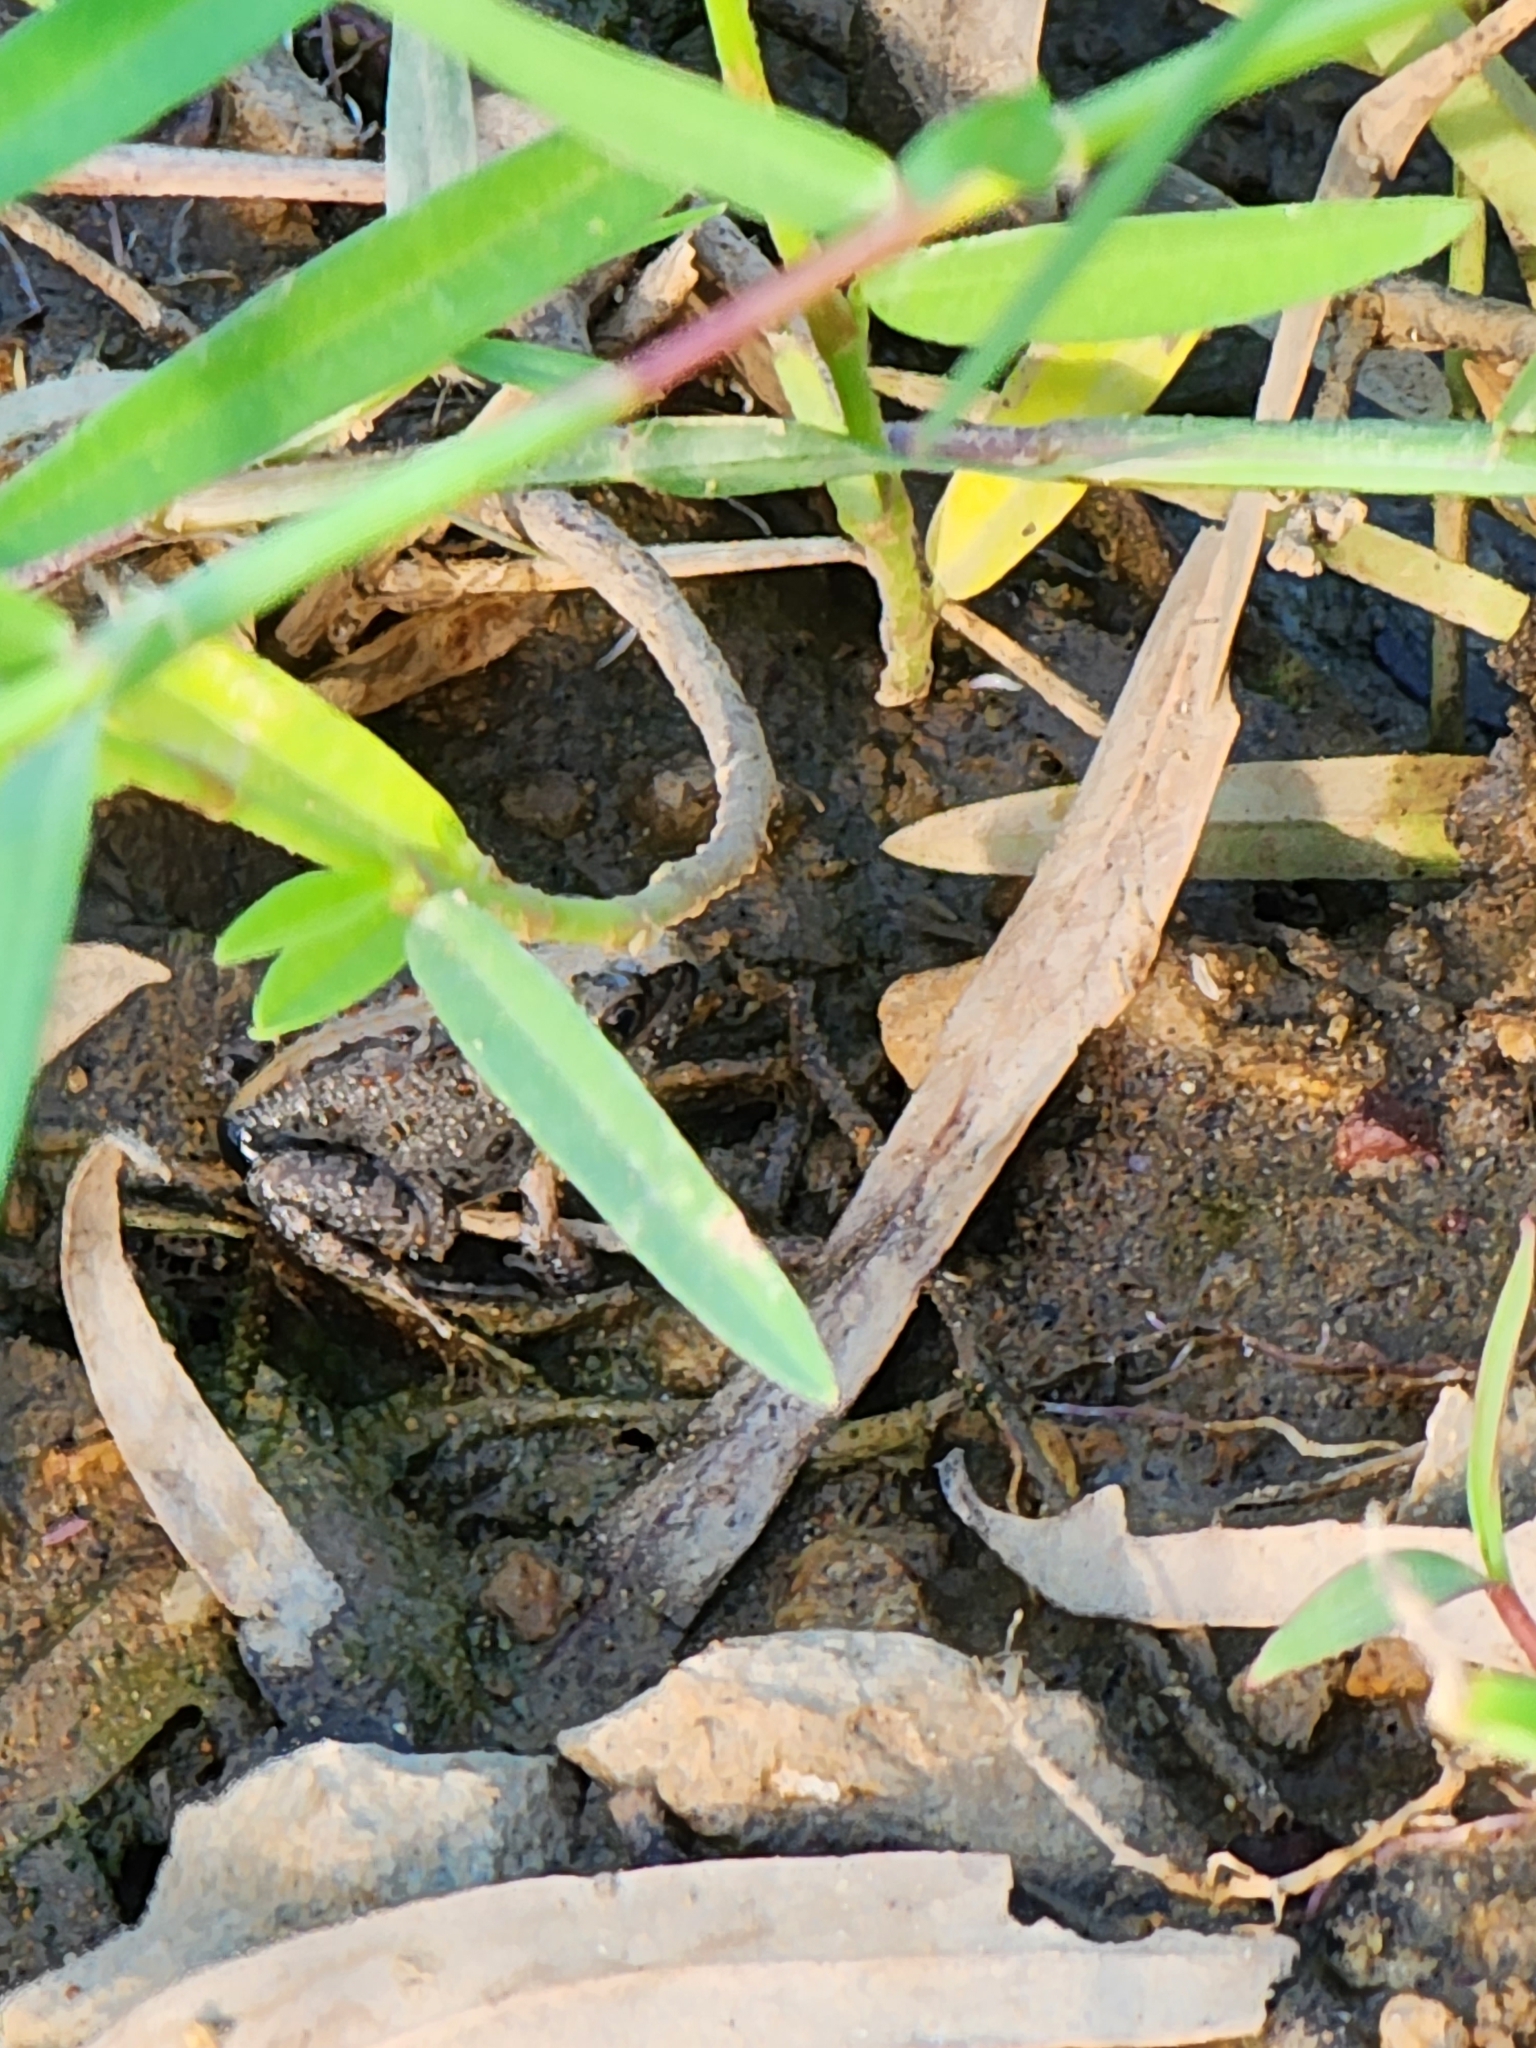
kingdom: Animalia
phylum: Chordata
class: Amphibia
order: Anura
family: Limnodynastidae
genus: Platyplectrum
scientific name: Platyplectrum ornatum
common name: Ornate burrowing frog
